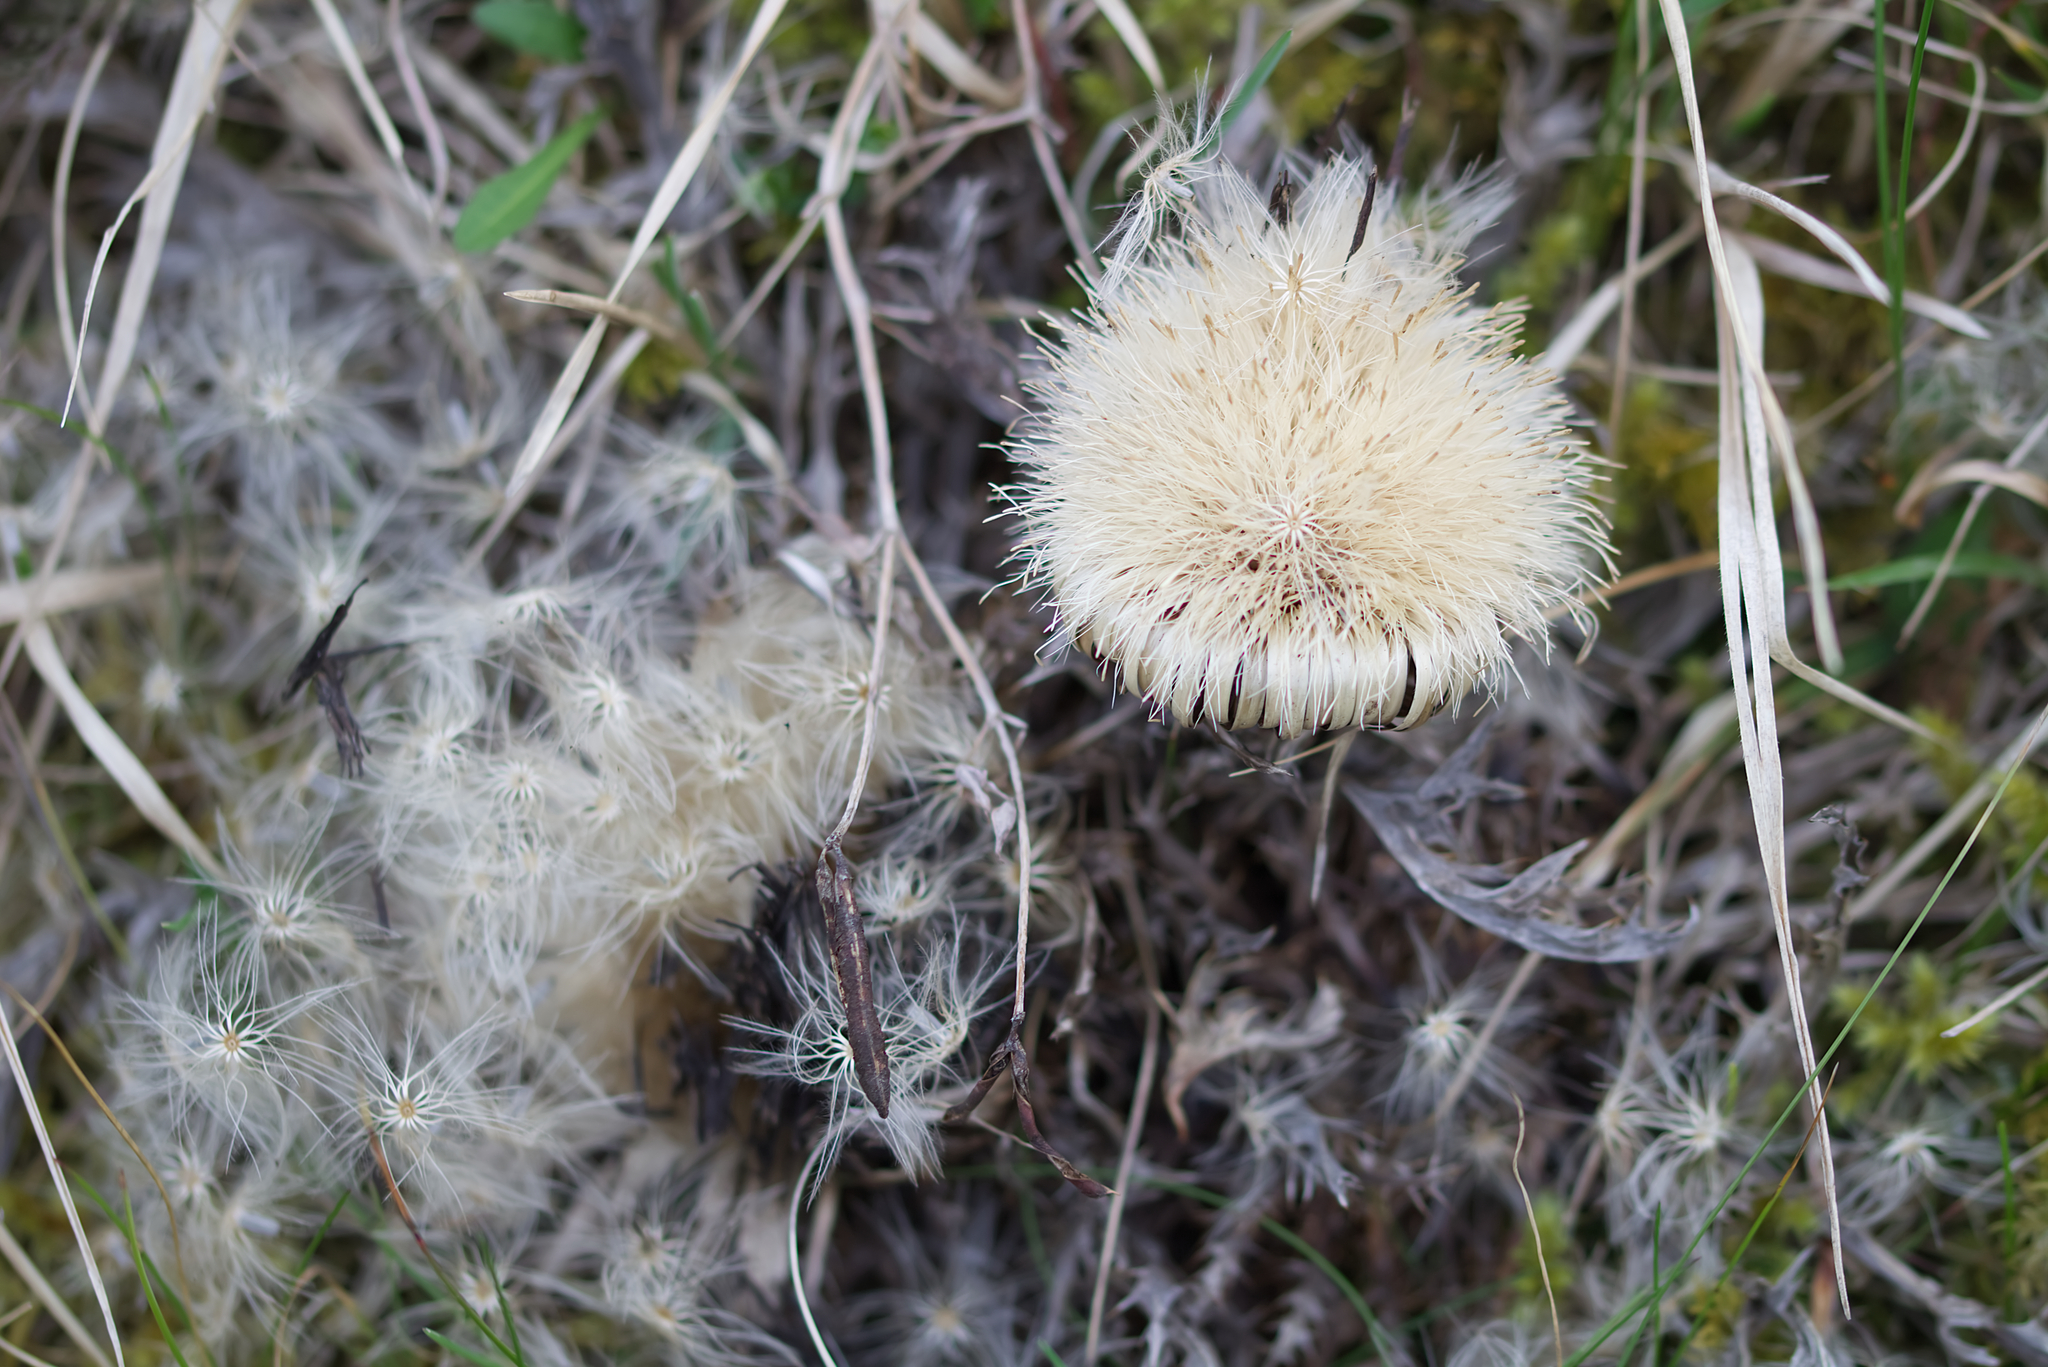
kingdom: Plantae
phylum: Tracheophyta
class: Magnoliopsida
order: Asterales
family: Asteraceae
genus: Carlina
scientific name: Carlina acaulis
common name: Stemless carline thistle
